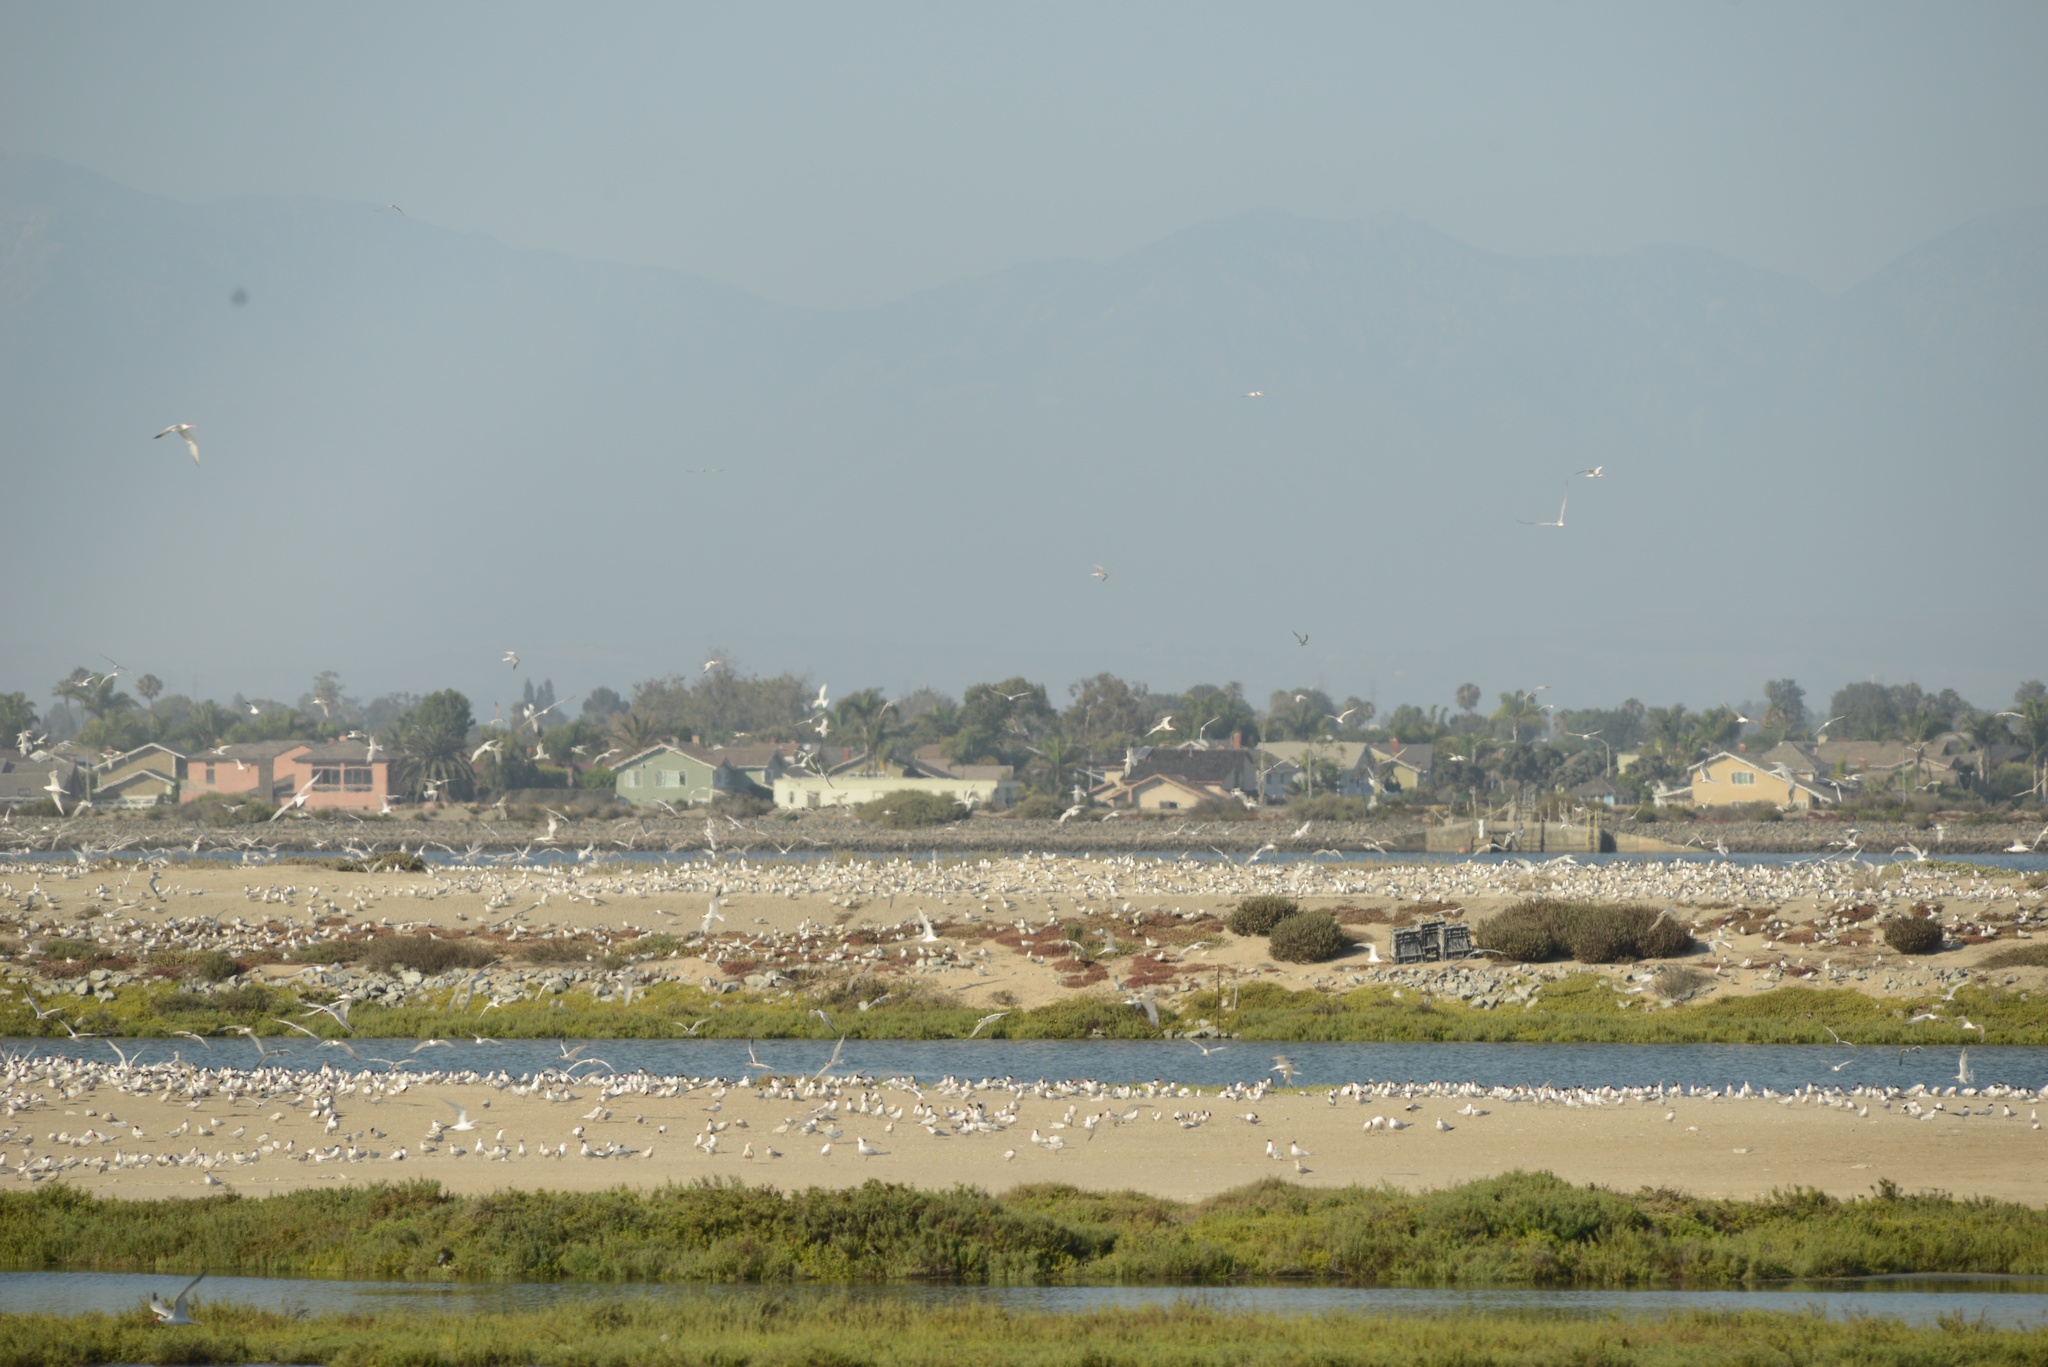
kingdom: Animalia
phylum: Chordata
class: Aves
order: Charadriiformes
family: Laridae
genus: Rynchops
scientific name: Rynchops niger
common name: Black skimmer
